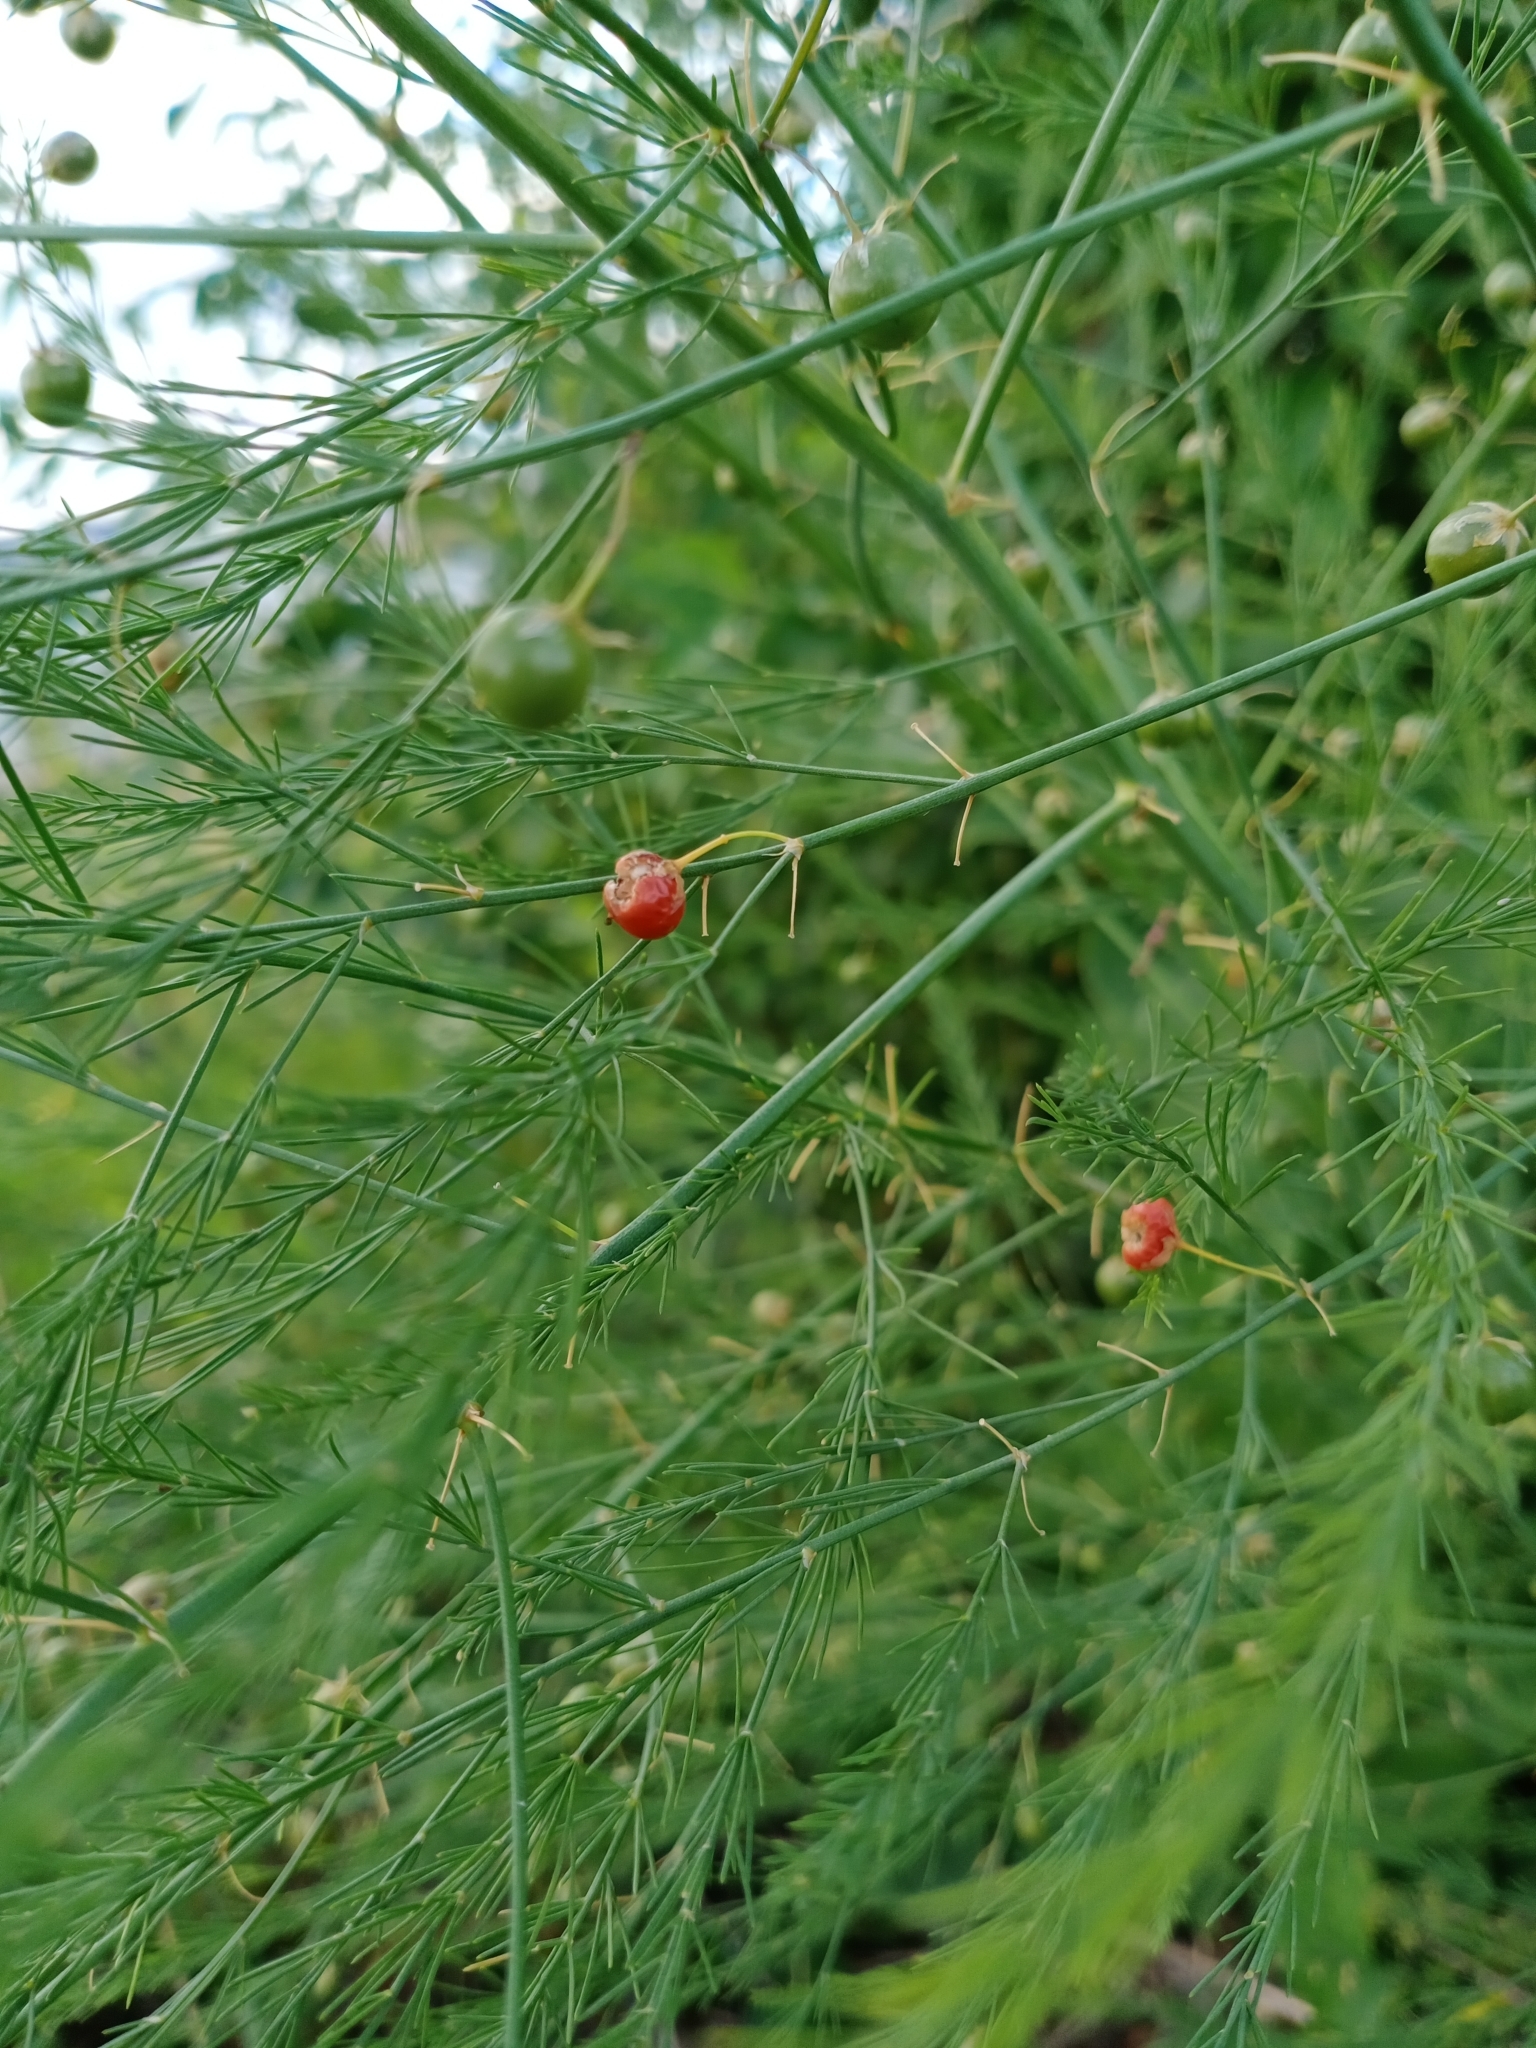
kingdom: Plantae
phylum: Tracheophyta
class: Liliopsida
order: Asparagales
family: Asparagaceae
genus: Asparagus
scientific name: Asparagus officinalis
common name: Garden asparagus
